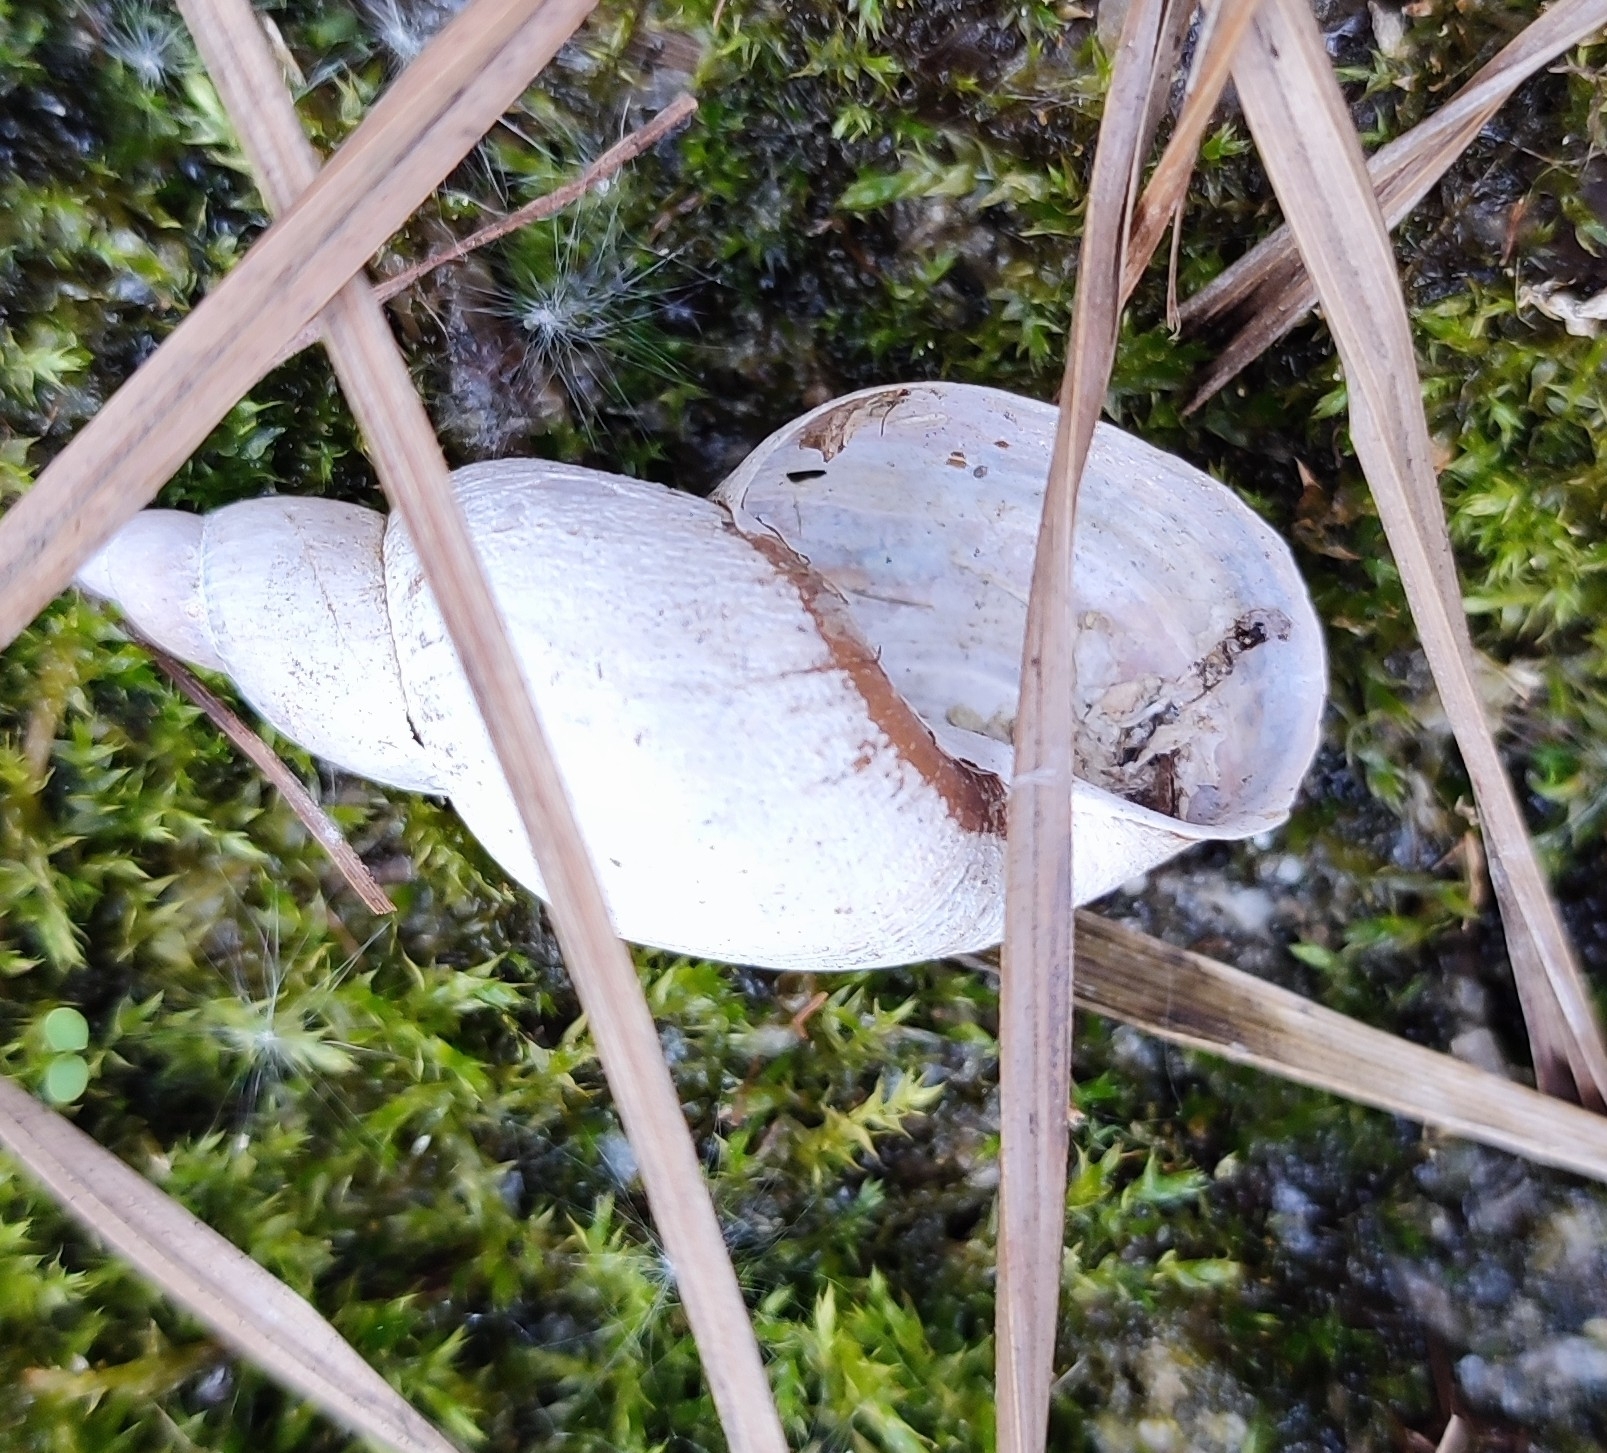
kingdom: Animalia
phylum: Mollusca
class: Gastropoda
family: Lymnaeidae
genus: Lymnaea
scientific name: Lymnaea stagnalis
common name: Great pond snail
